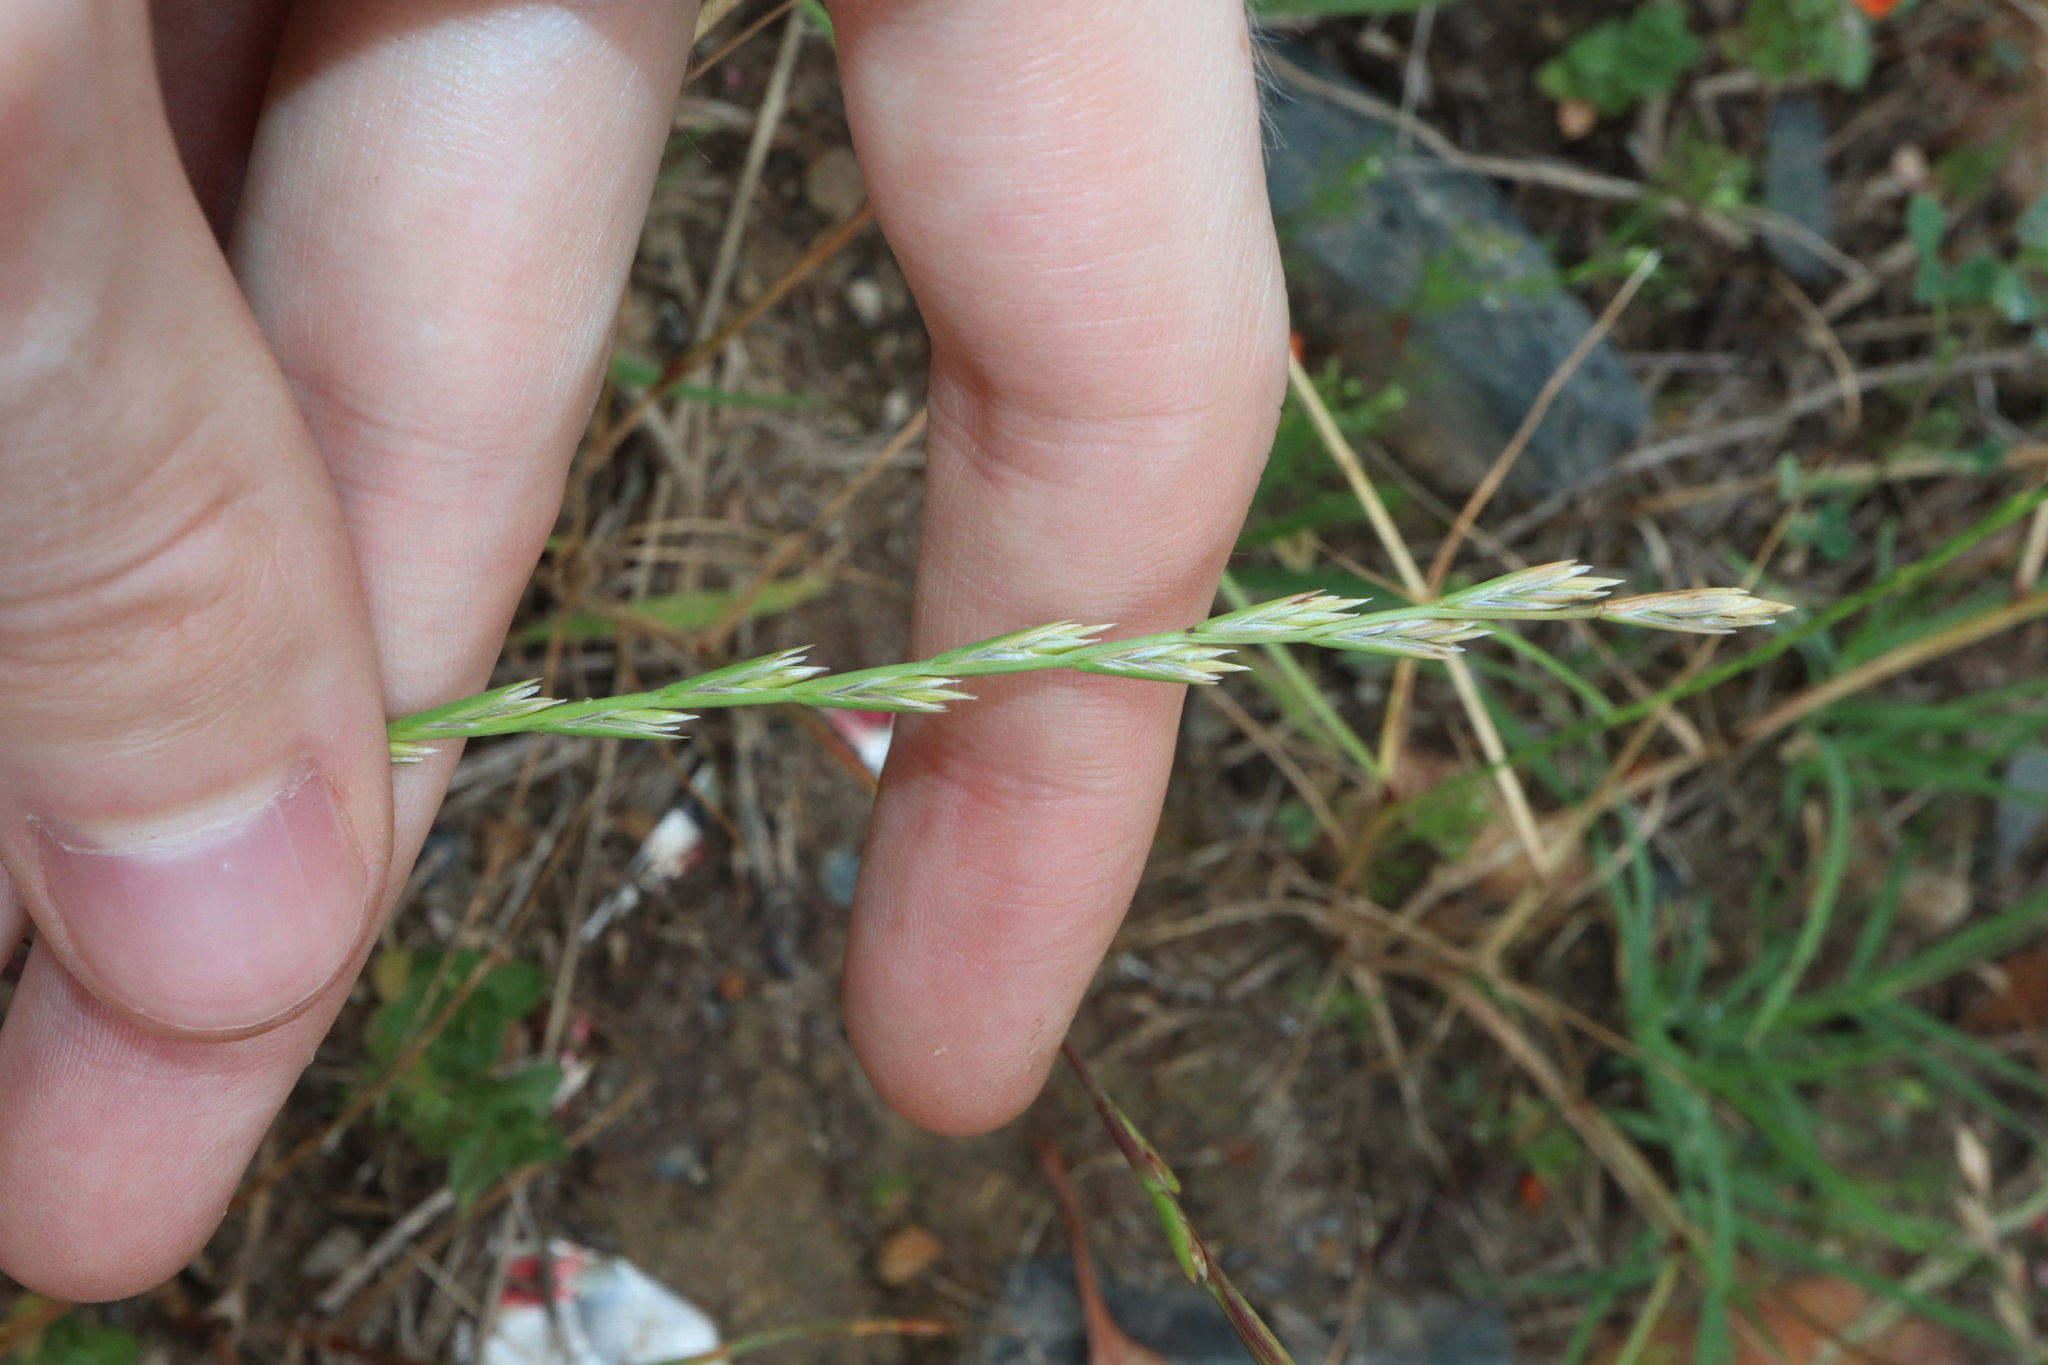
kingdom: Plantae
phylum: Tracheophyta
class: Liliopsida
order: Poales
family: Poaceae
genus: Lolium
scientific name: Lolium rigidum
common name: Wimmera ryegrass
